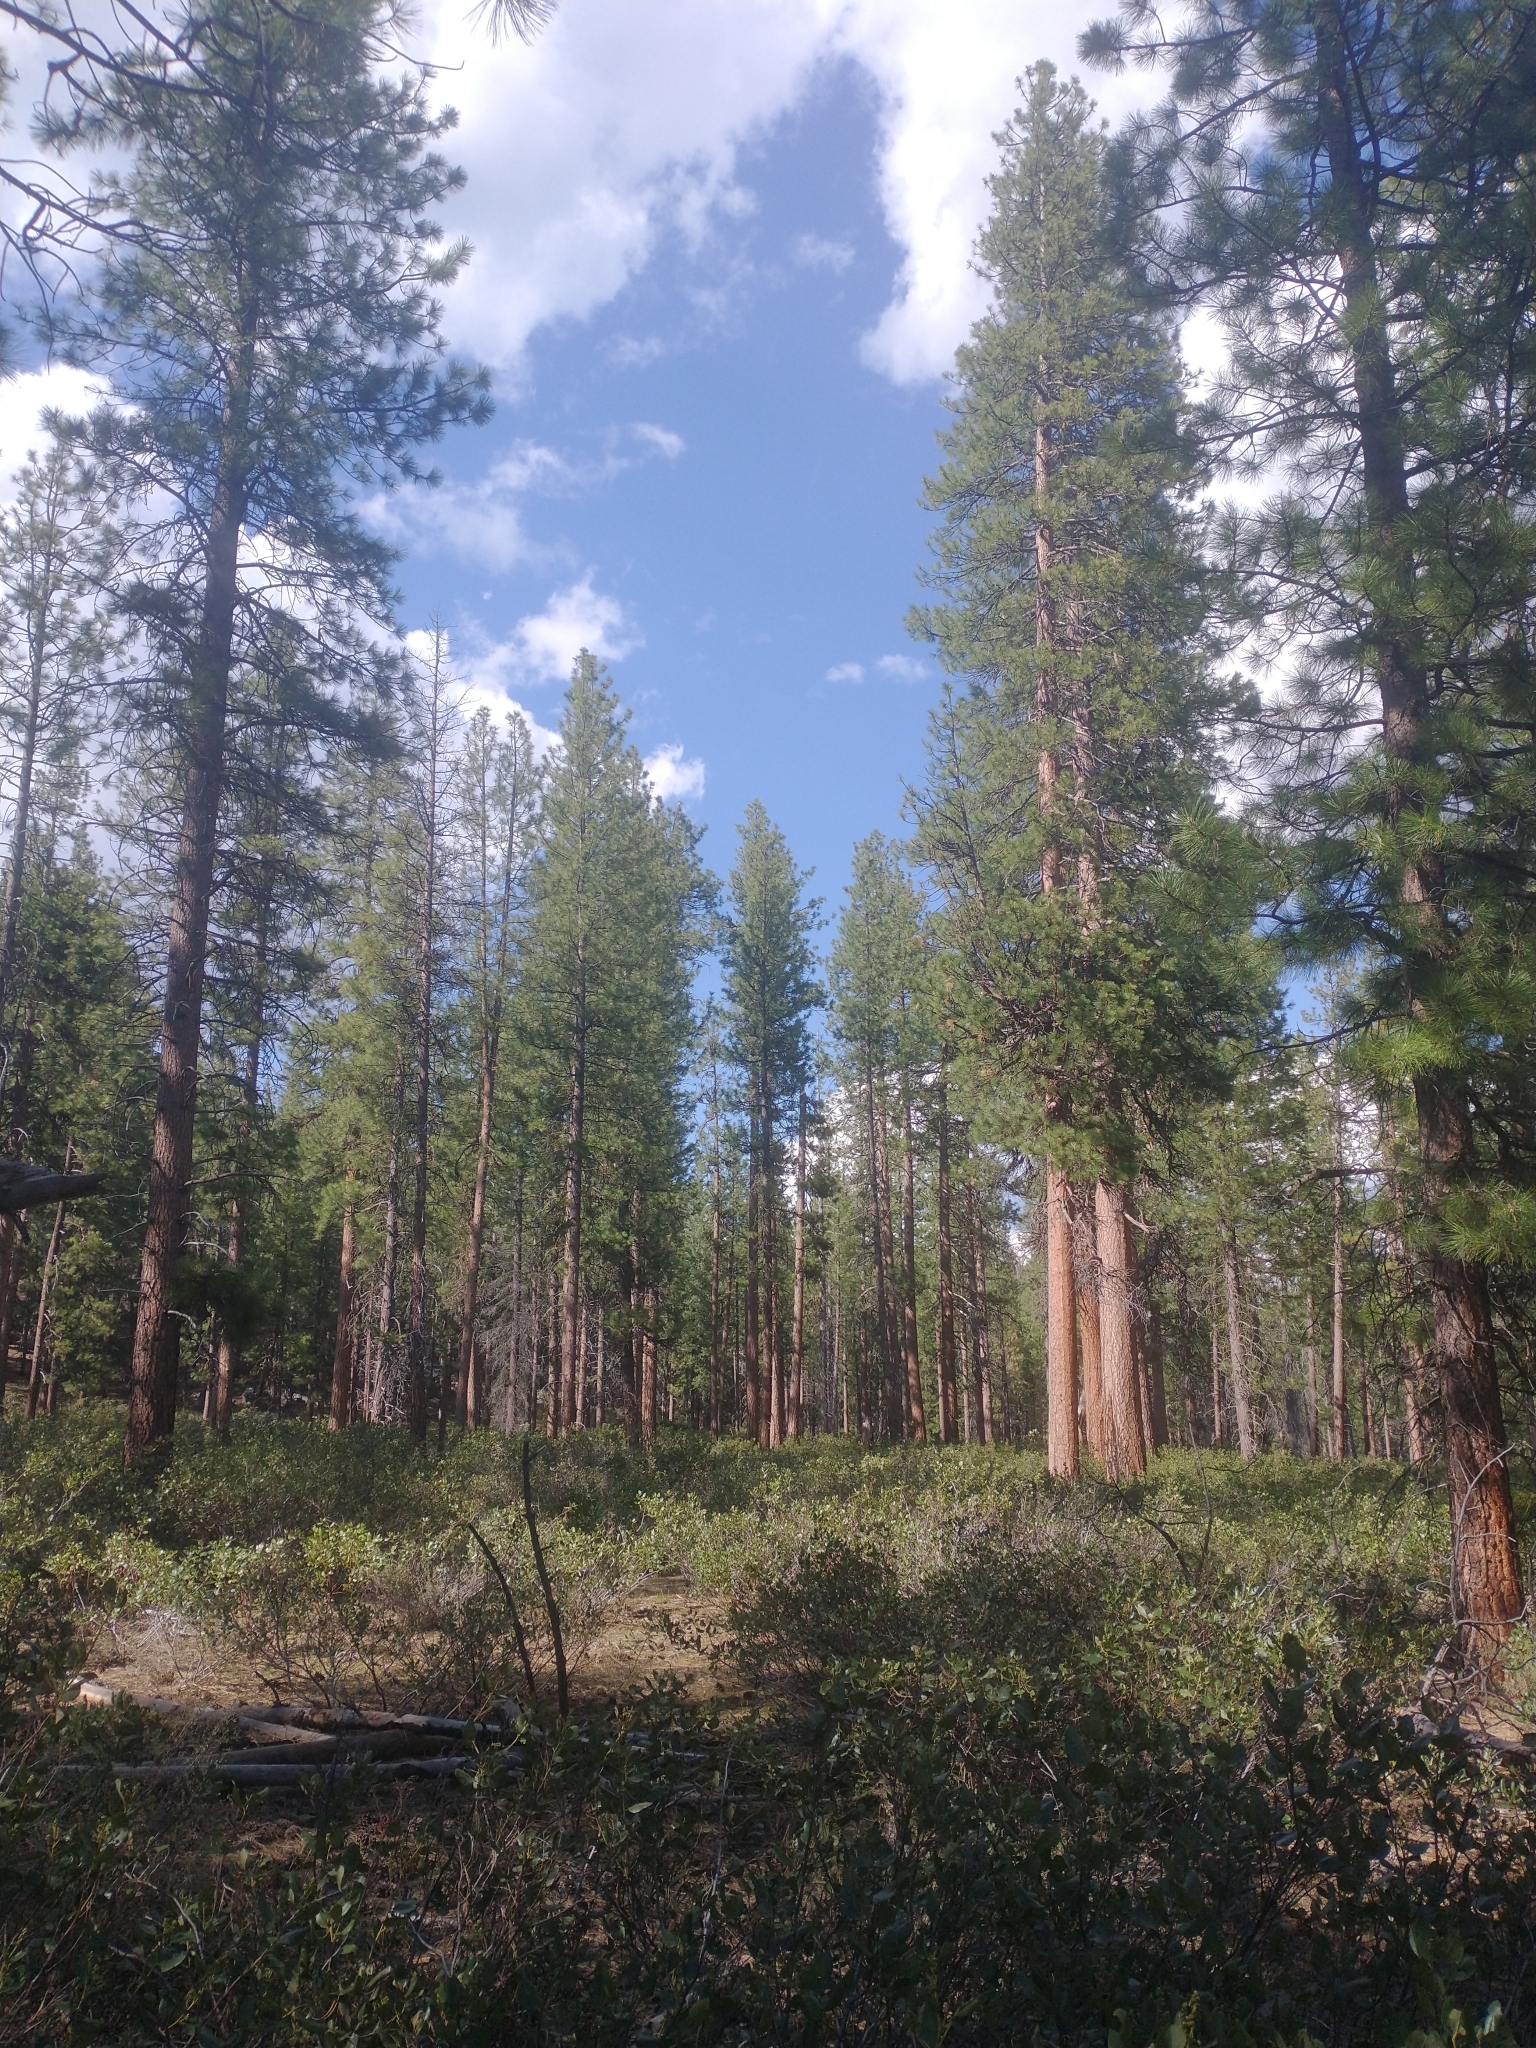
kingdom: Plantae
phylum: Tracheophyta
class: Magnoliopsida
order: Rosales
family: Rhamnaceae
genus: Ceanothus
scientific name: Ceanothus velutinus
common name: Snowbrush
